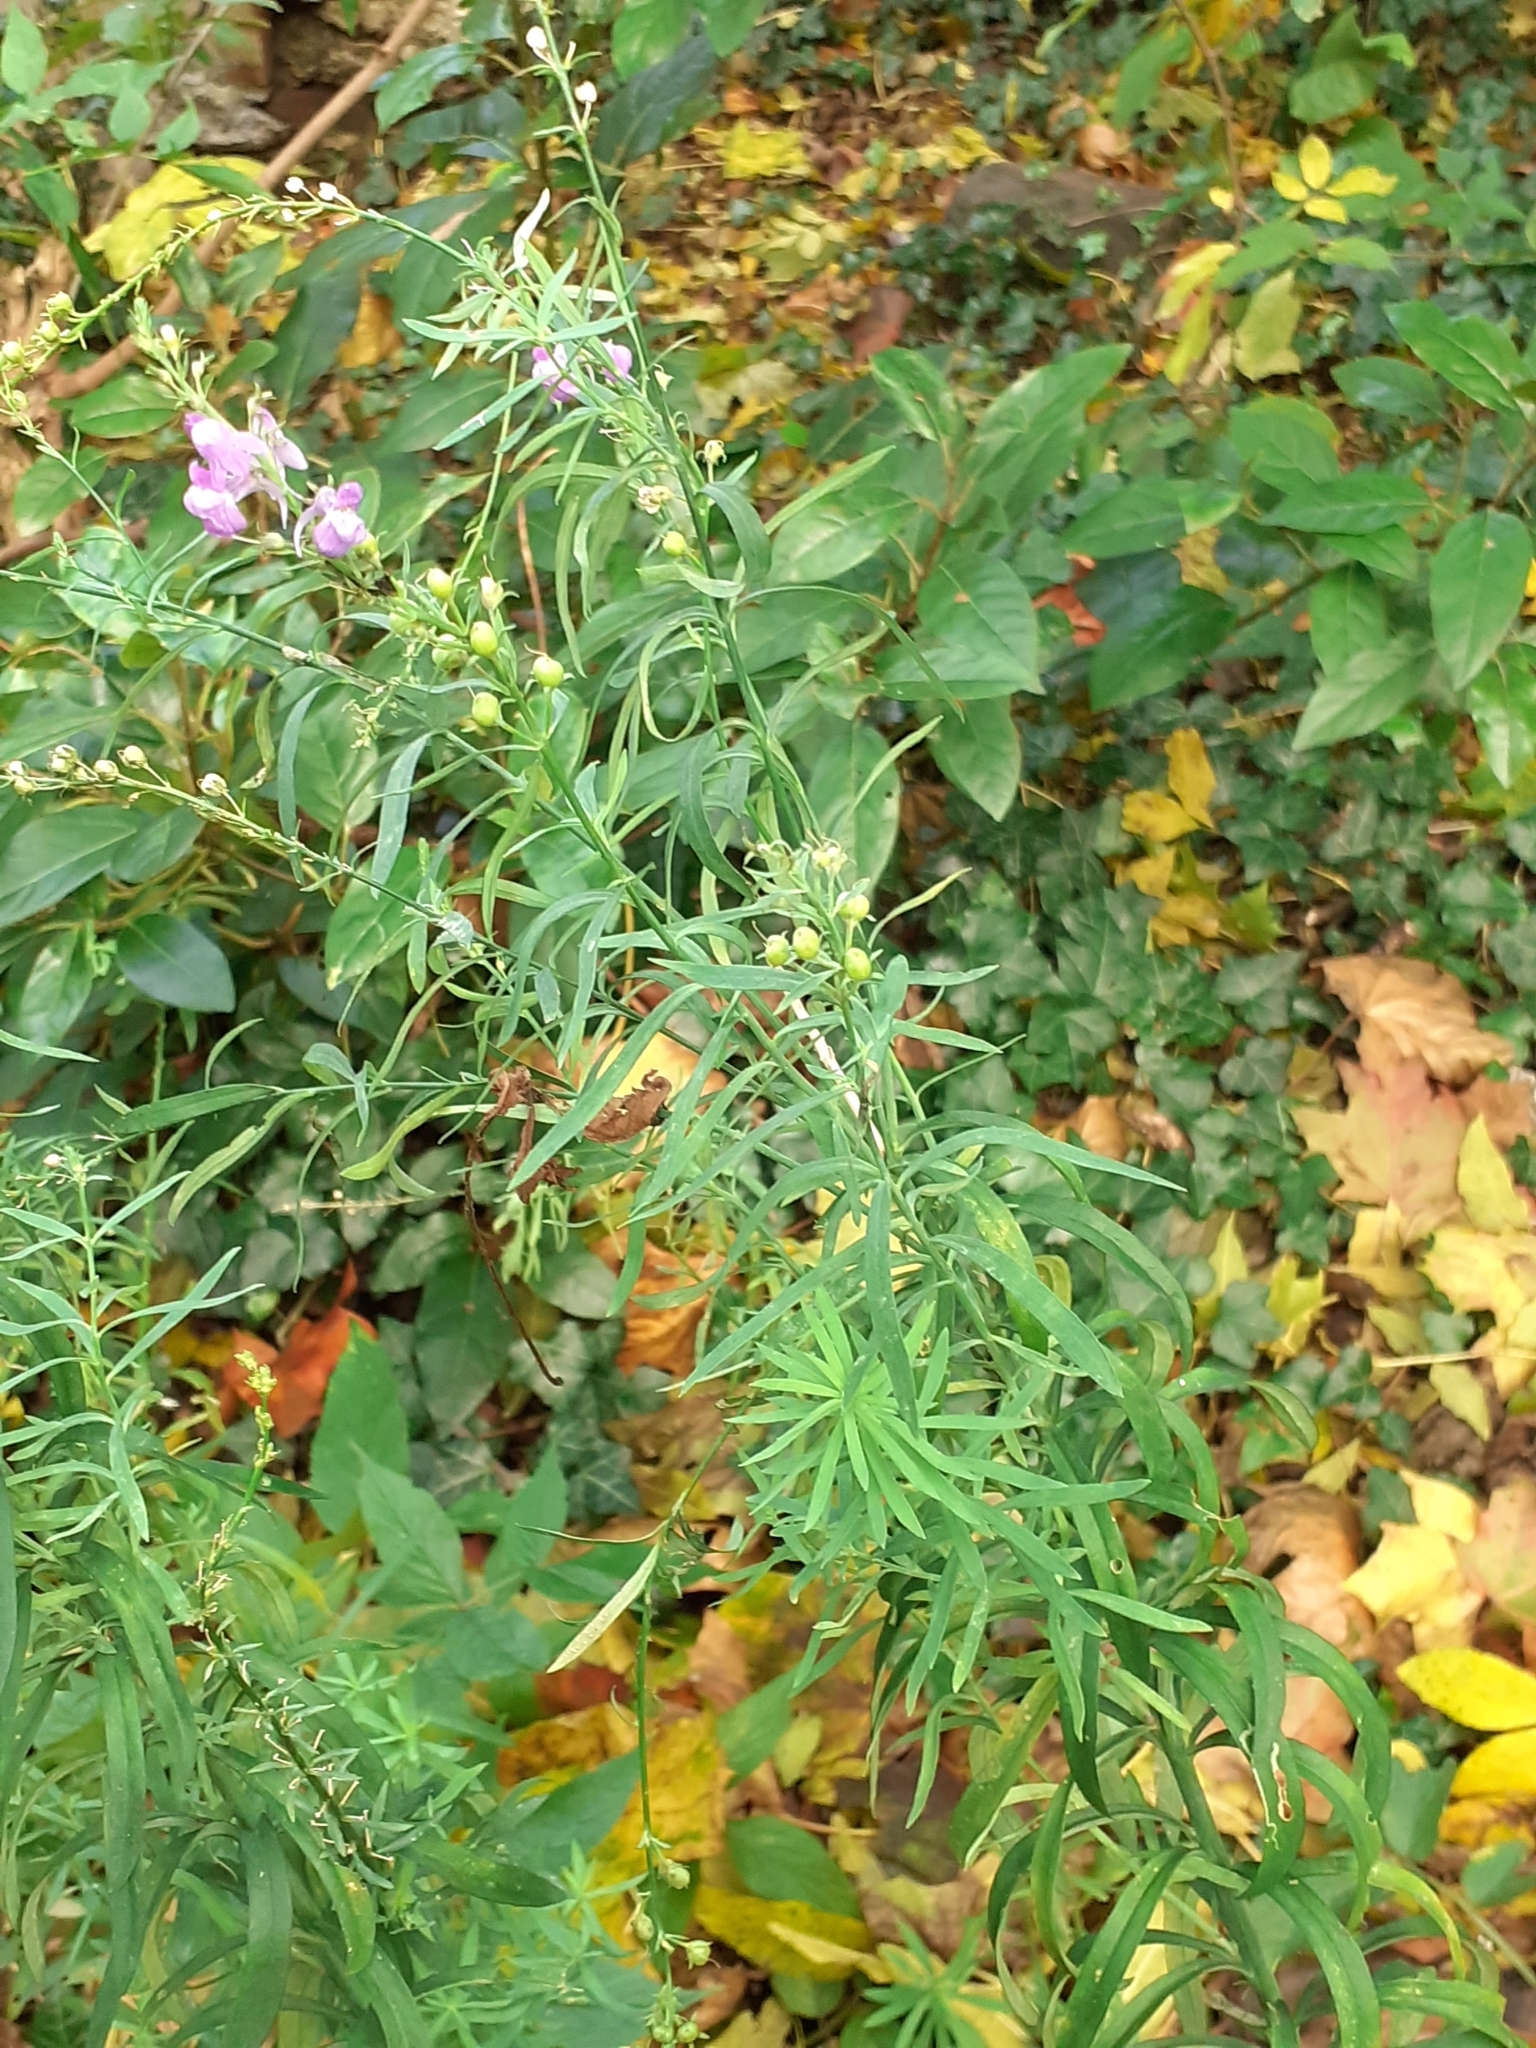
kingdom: Plantae
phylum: Tracheophyta
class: Magnoliopsida
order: Lamiales
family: Plantaginaceae
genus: Linaria
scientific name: Linaria purpurea
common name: Purple toadflax
